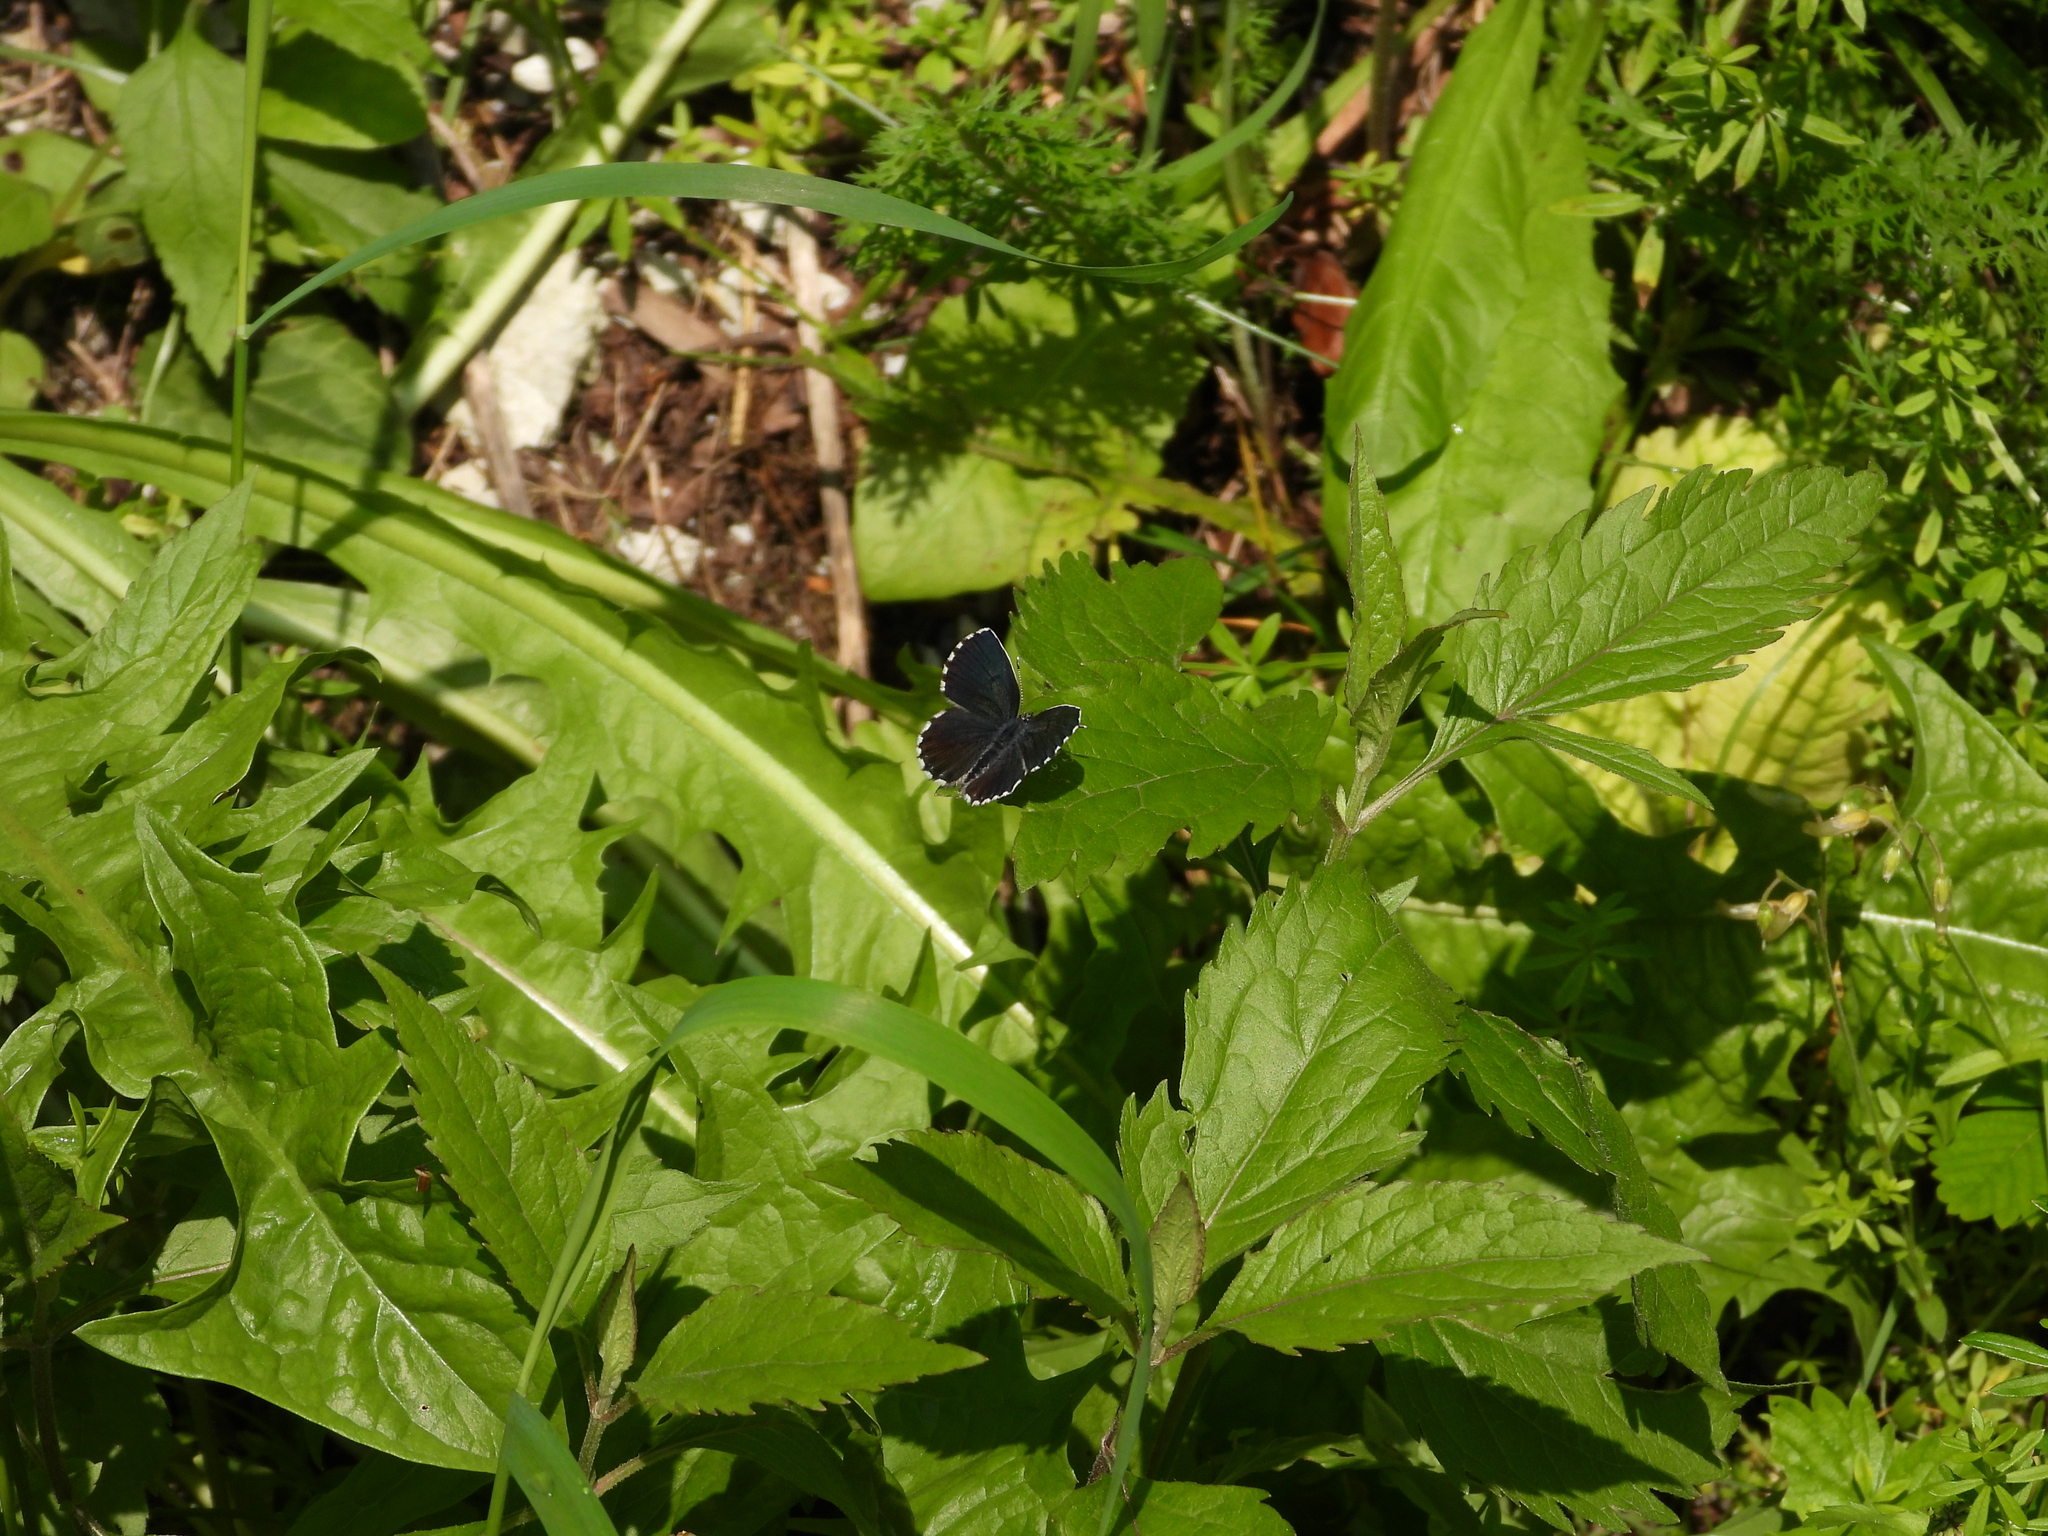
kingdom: Animalia
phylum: Arthropoda
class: Insecta
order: Lepidoptera
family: Lycaenidae
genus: Scolitantides
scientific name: Scolitantides orion
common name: Chequered blue
